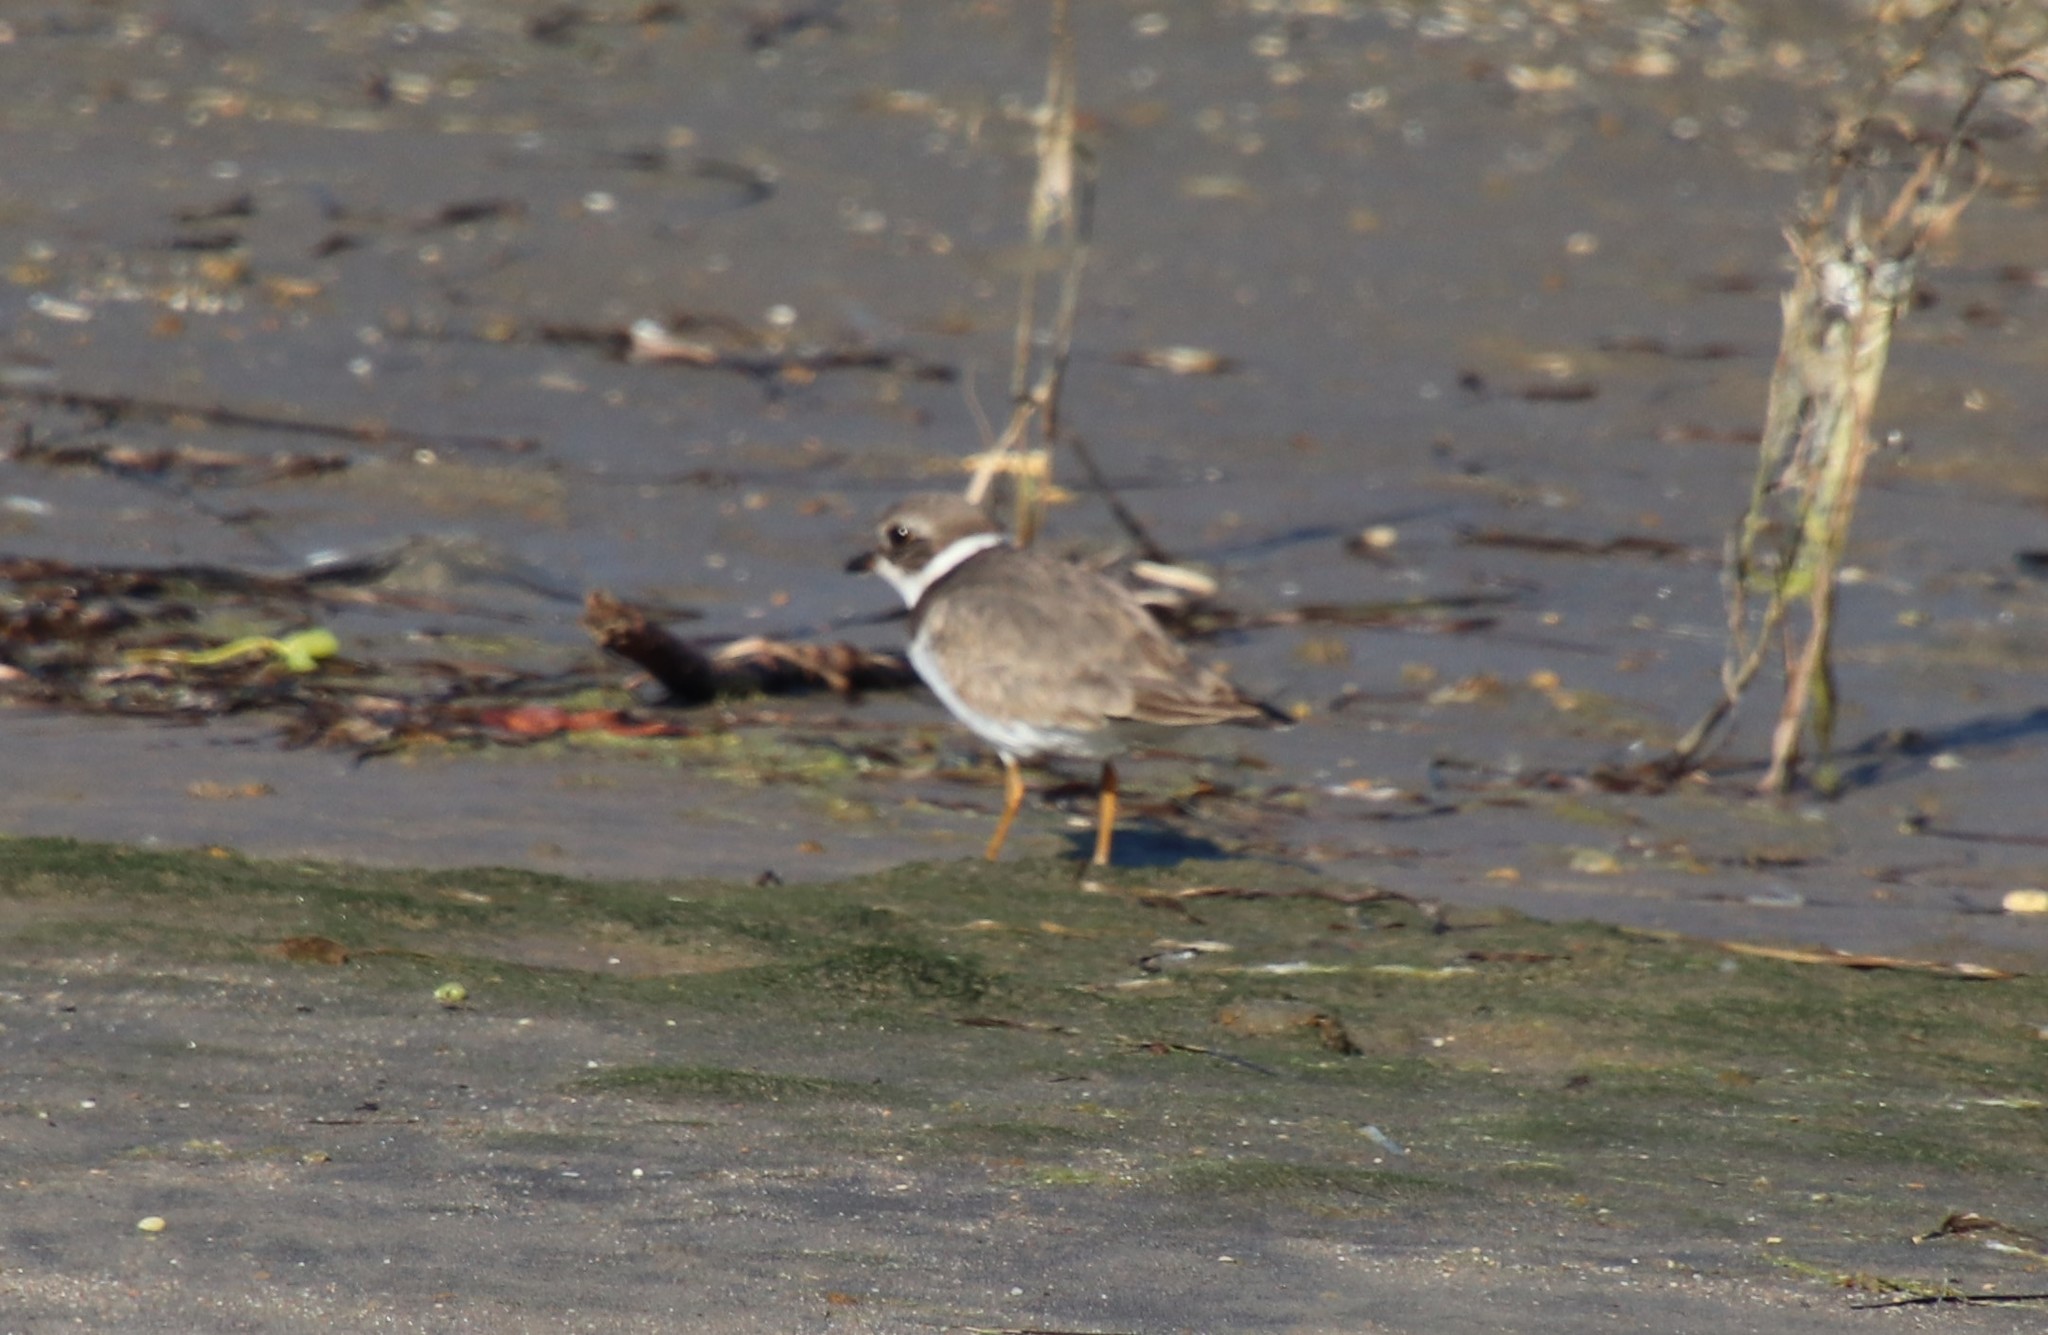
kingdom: Animalia
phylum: Chordata
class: Aves
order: Charadriiformes
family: Charadriidae
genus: Charadrius
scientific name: Charadrius semipalmatus
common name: Semipalmated plover
